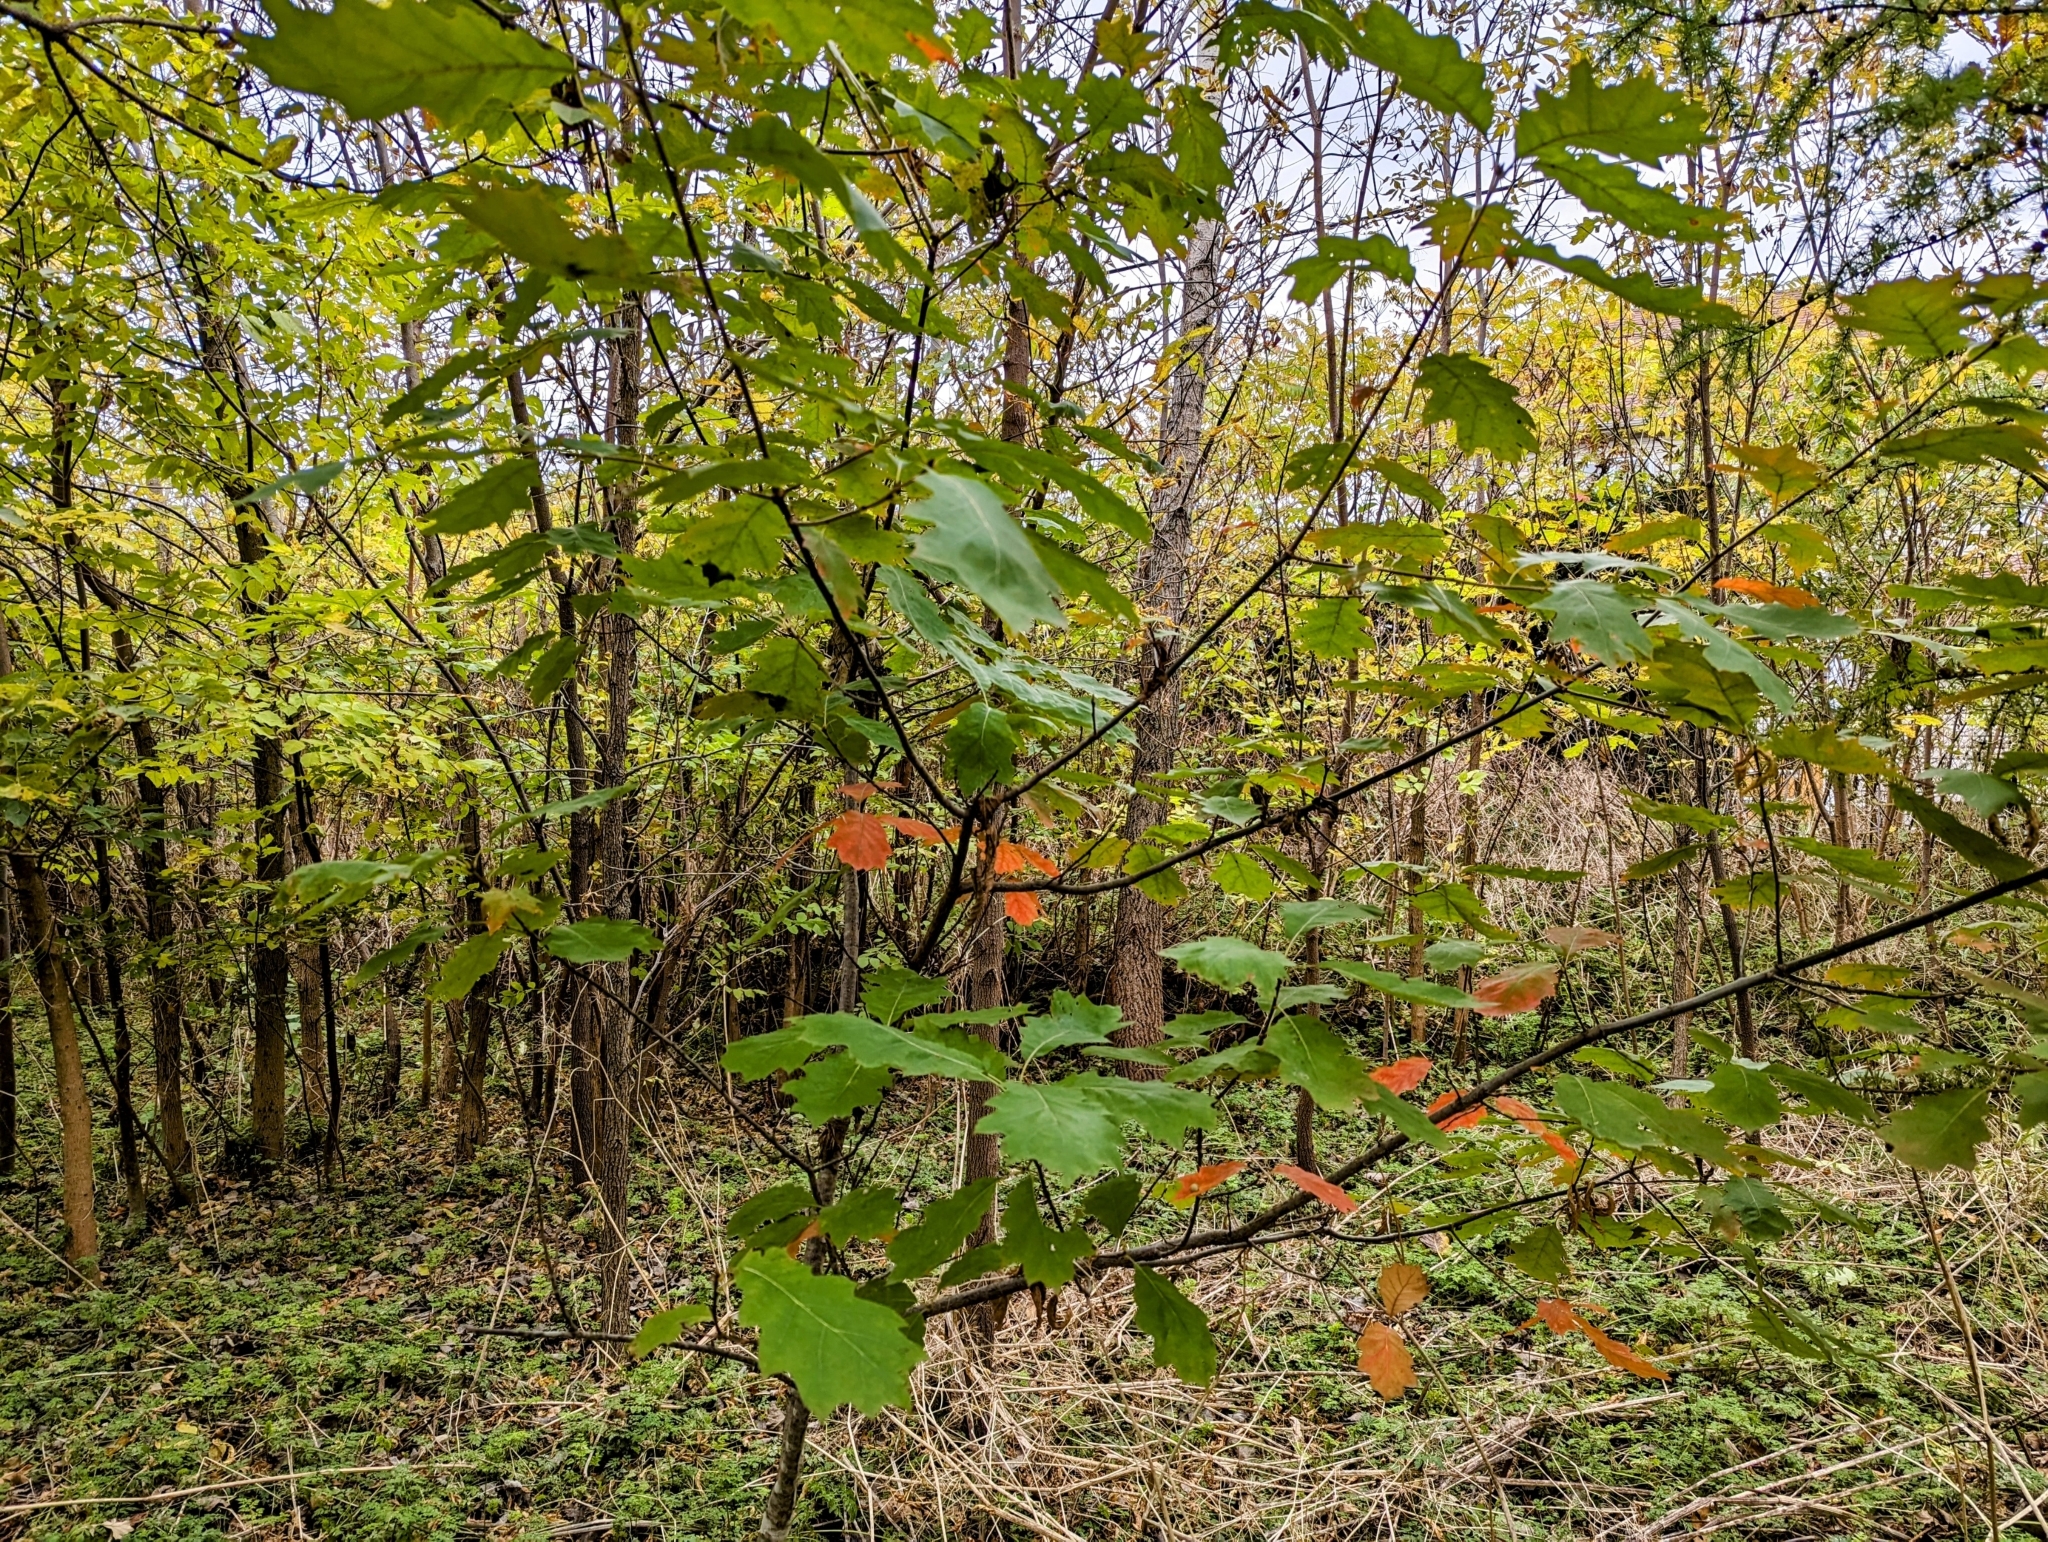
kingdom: Plantae
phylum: Tracheophyta
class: Magnoliopsida
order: Fagales
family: Fagaceae
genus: Quercus
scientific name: Quercus rubra
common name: Red oak
